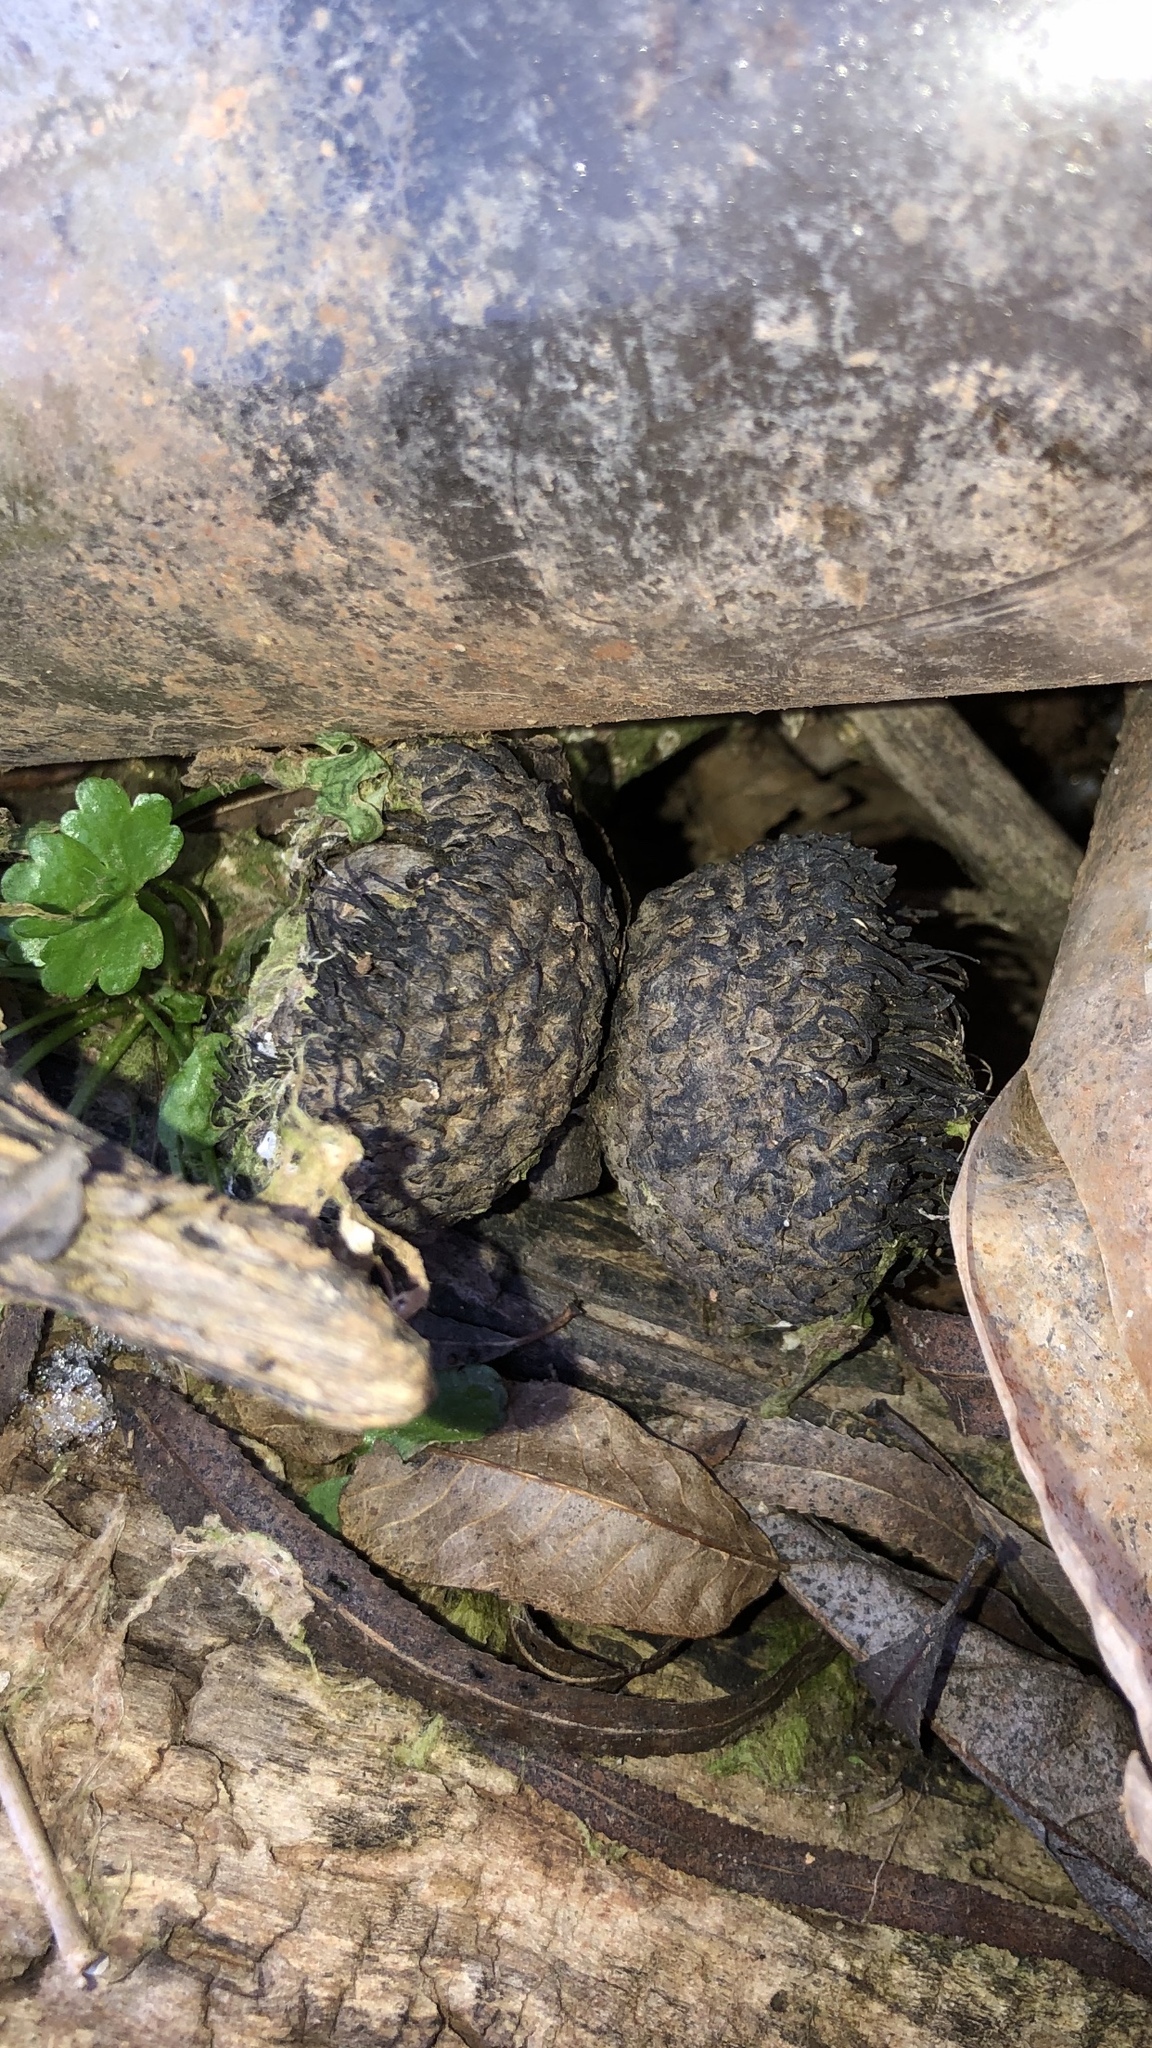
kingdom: Plantae
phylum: Tracheophyta
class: Magnoliopsida
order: Fagales
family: Fagaceae
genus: Quercus
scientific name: Quercus macrocarpa
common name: Bur oak
